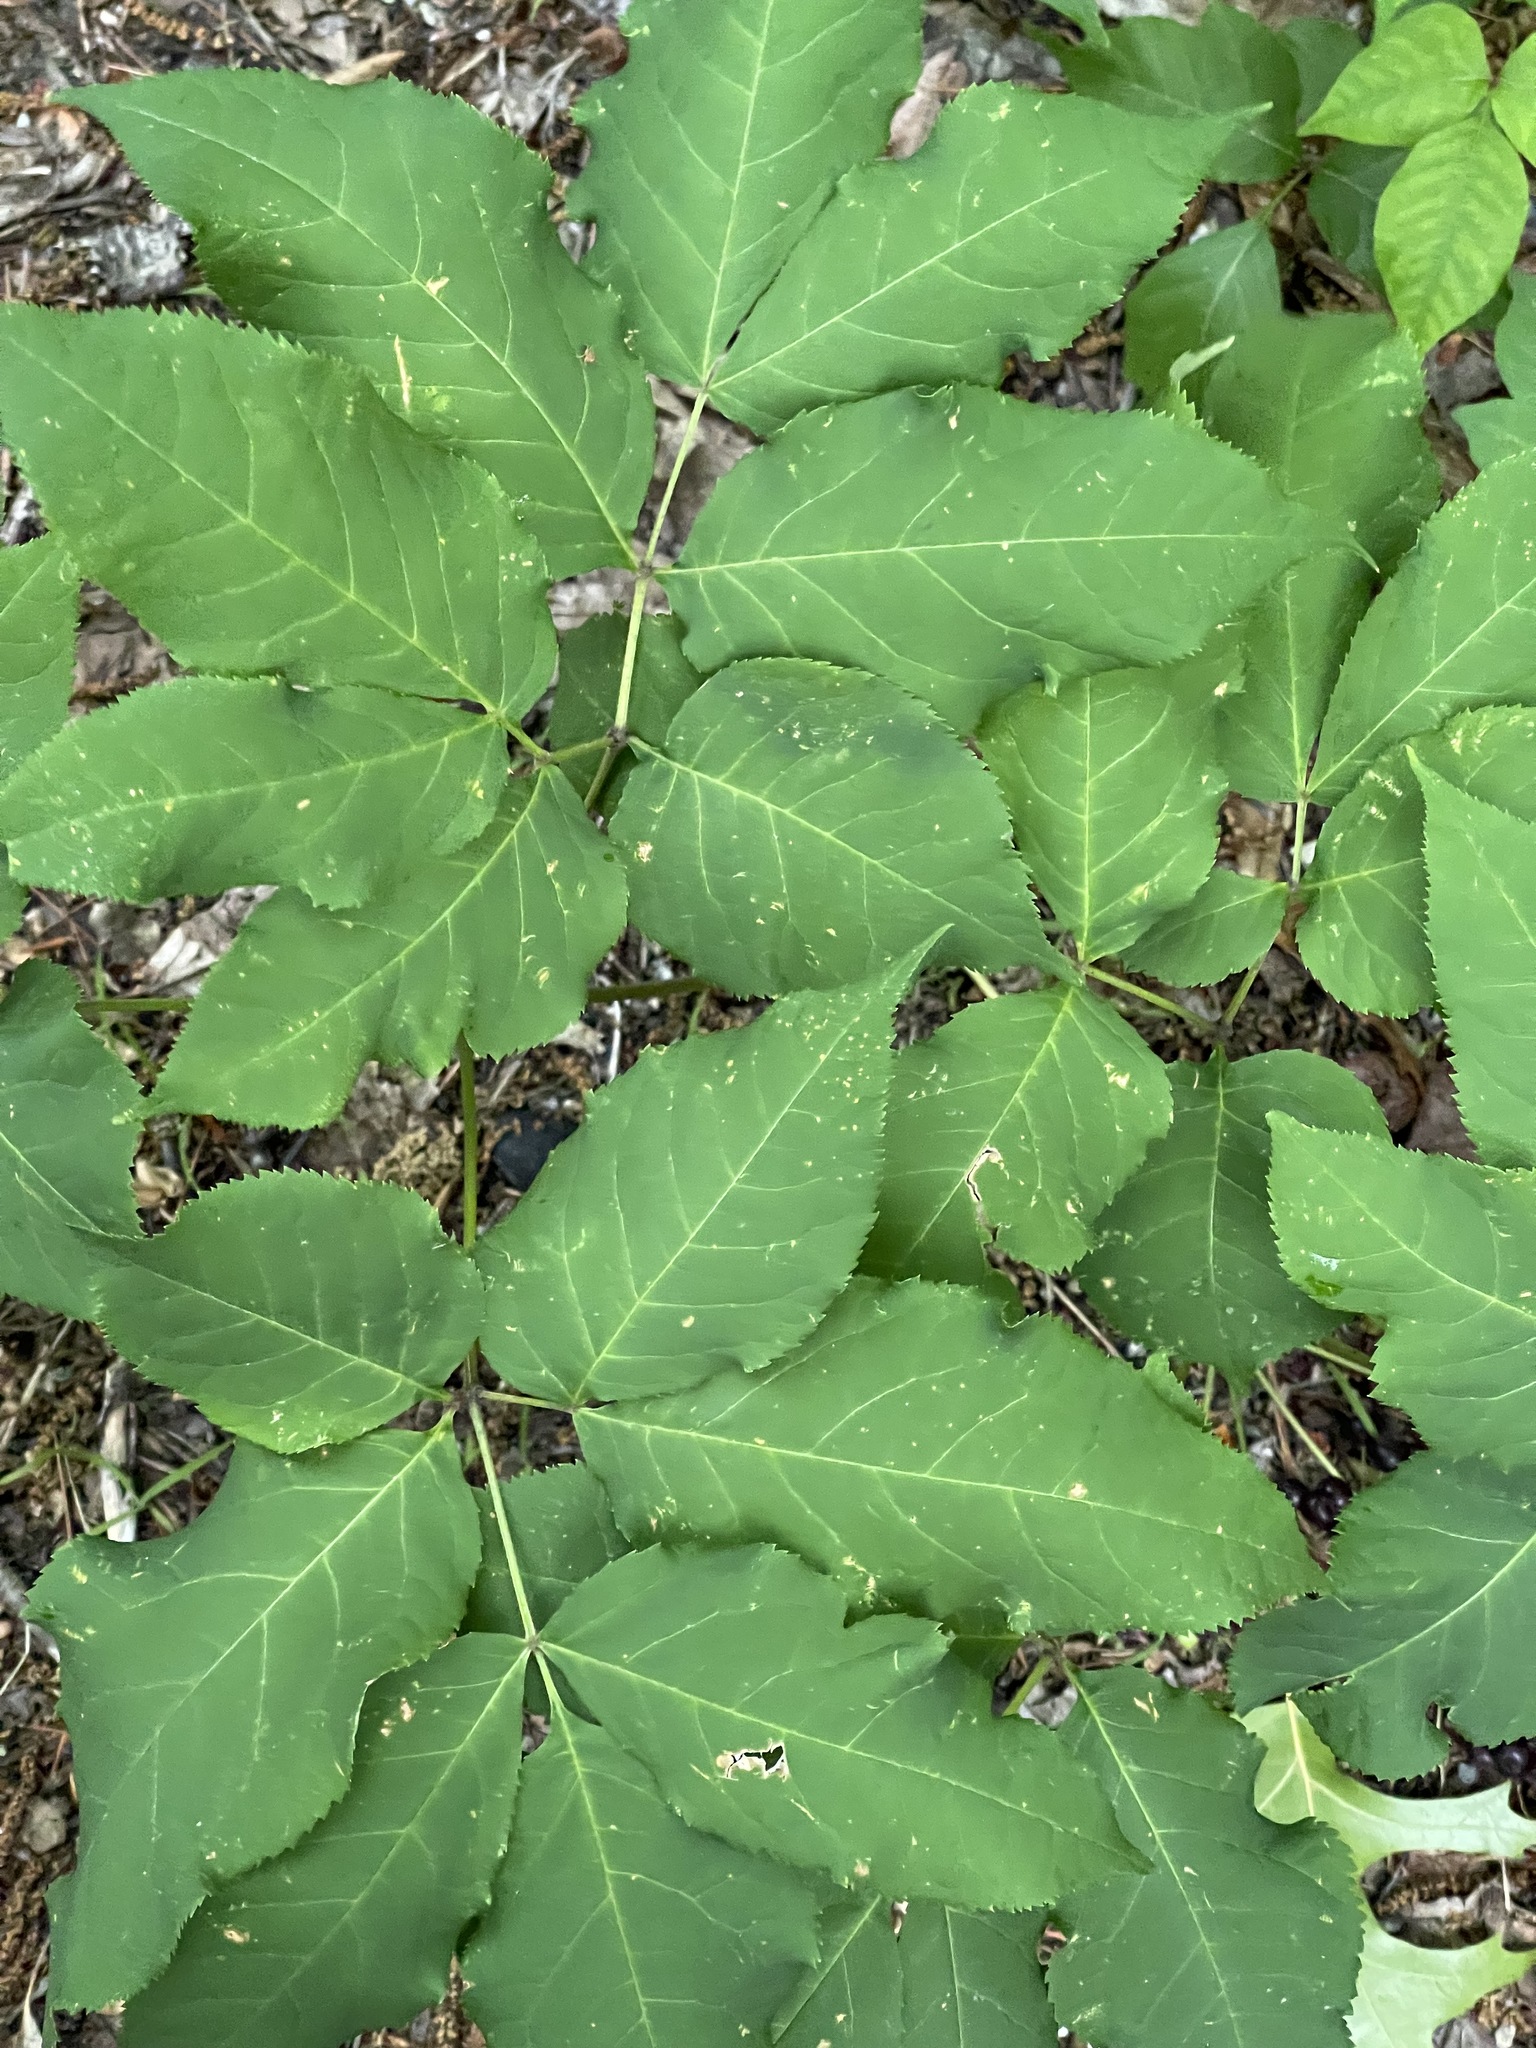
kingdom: Plantae
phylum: Tracheophyta
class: Magnoliopsida
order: Apiales
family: Araliaceae
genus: Aralia
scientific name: Aralia nudicaulis
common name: Wild sarsaparilla
